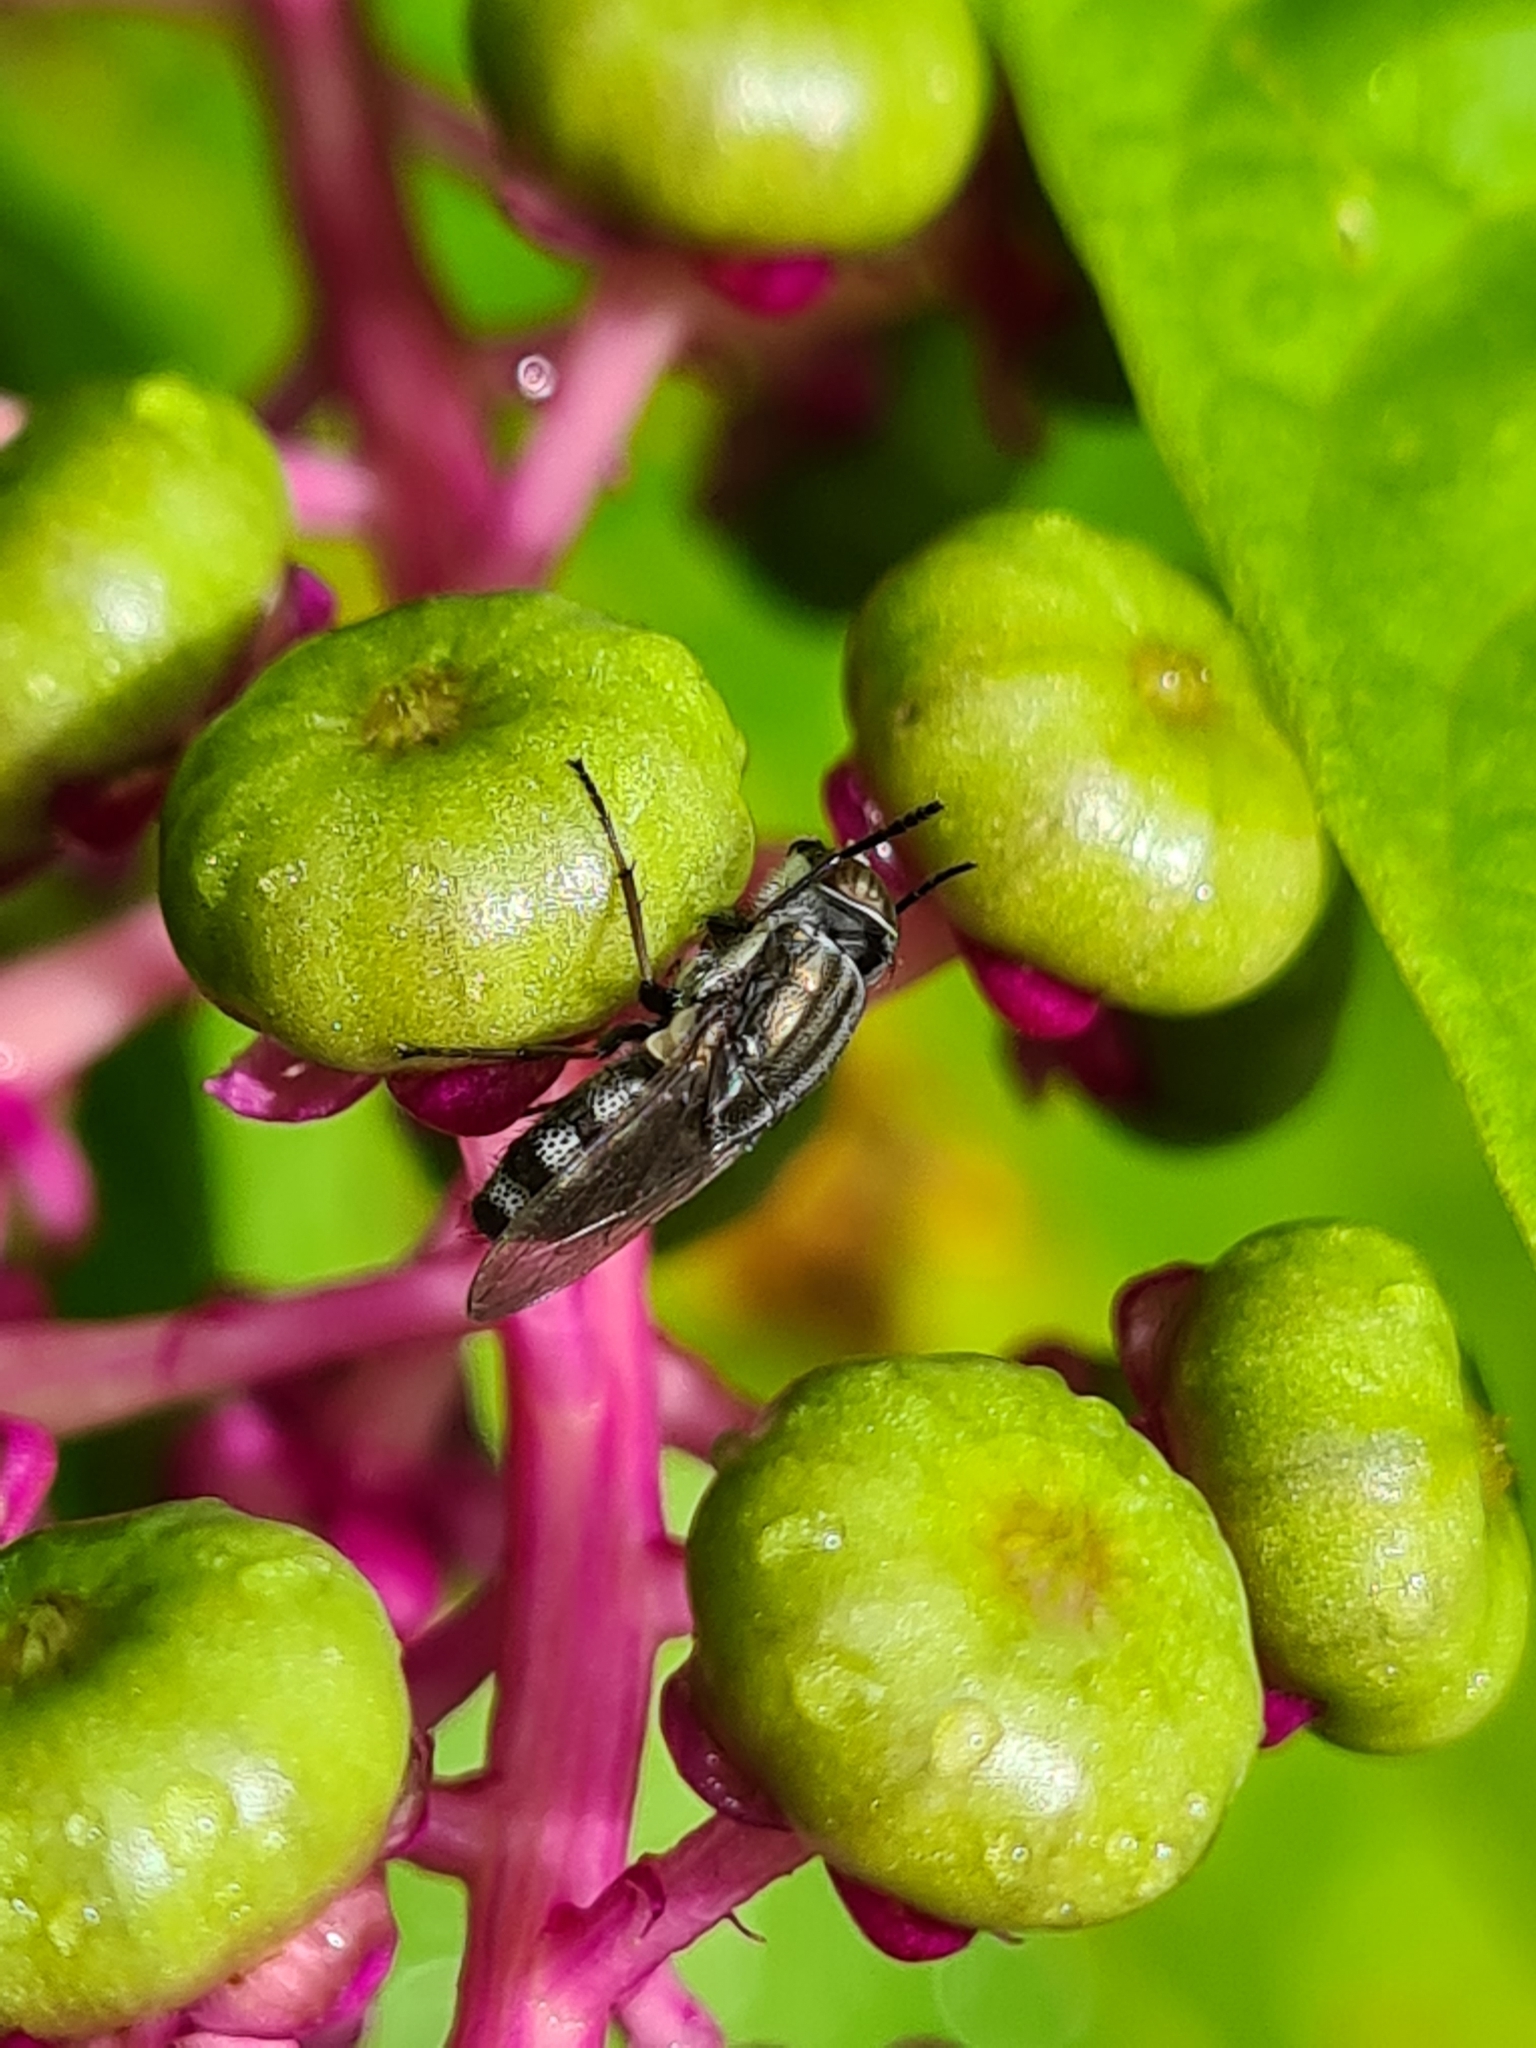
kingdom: Animalia
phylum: Arthropoda
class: Insecta
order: Diptera
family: Calliphoridae
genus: Stomorhina
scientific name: Stomorhina lunata
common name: Locust blowfly
